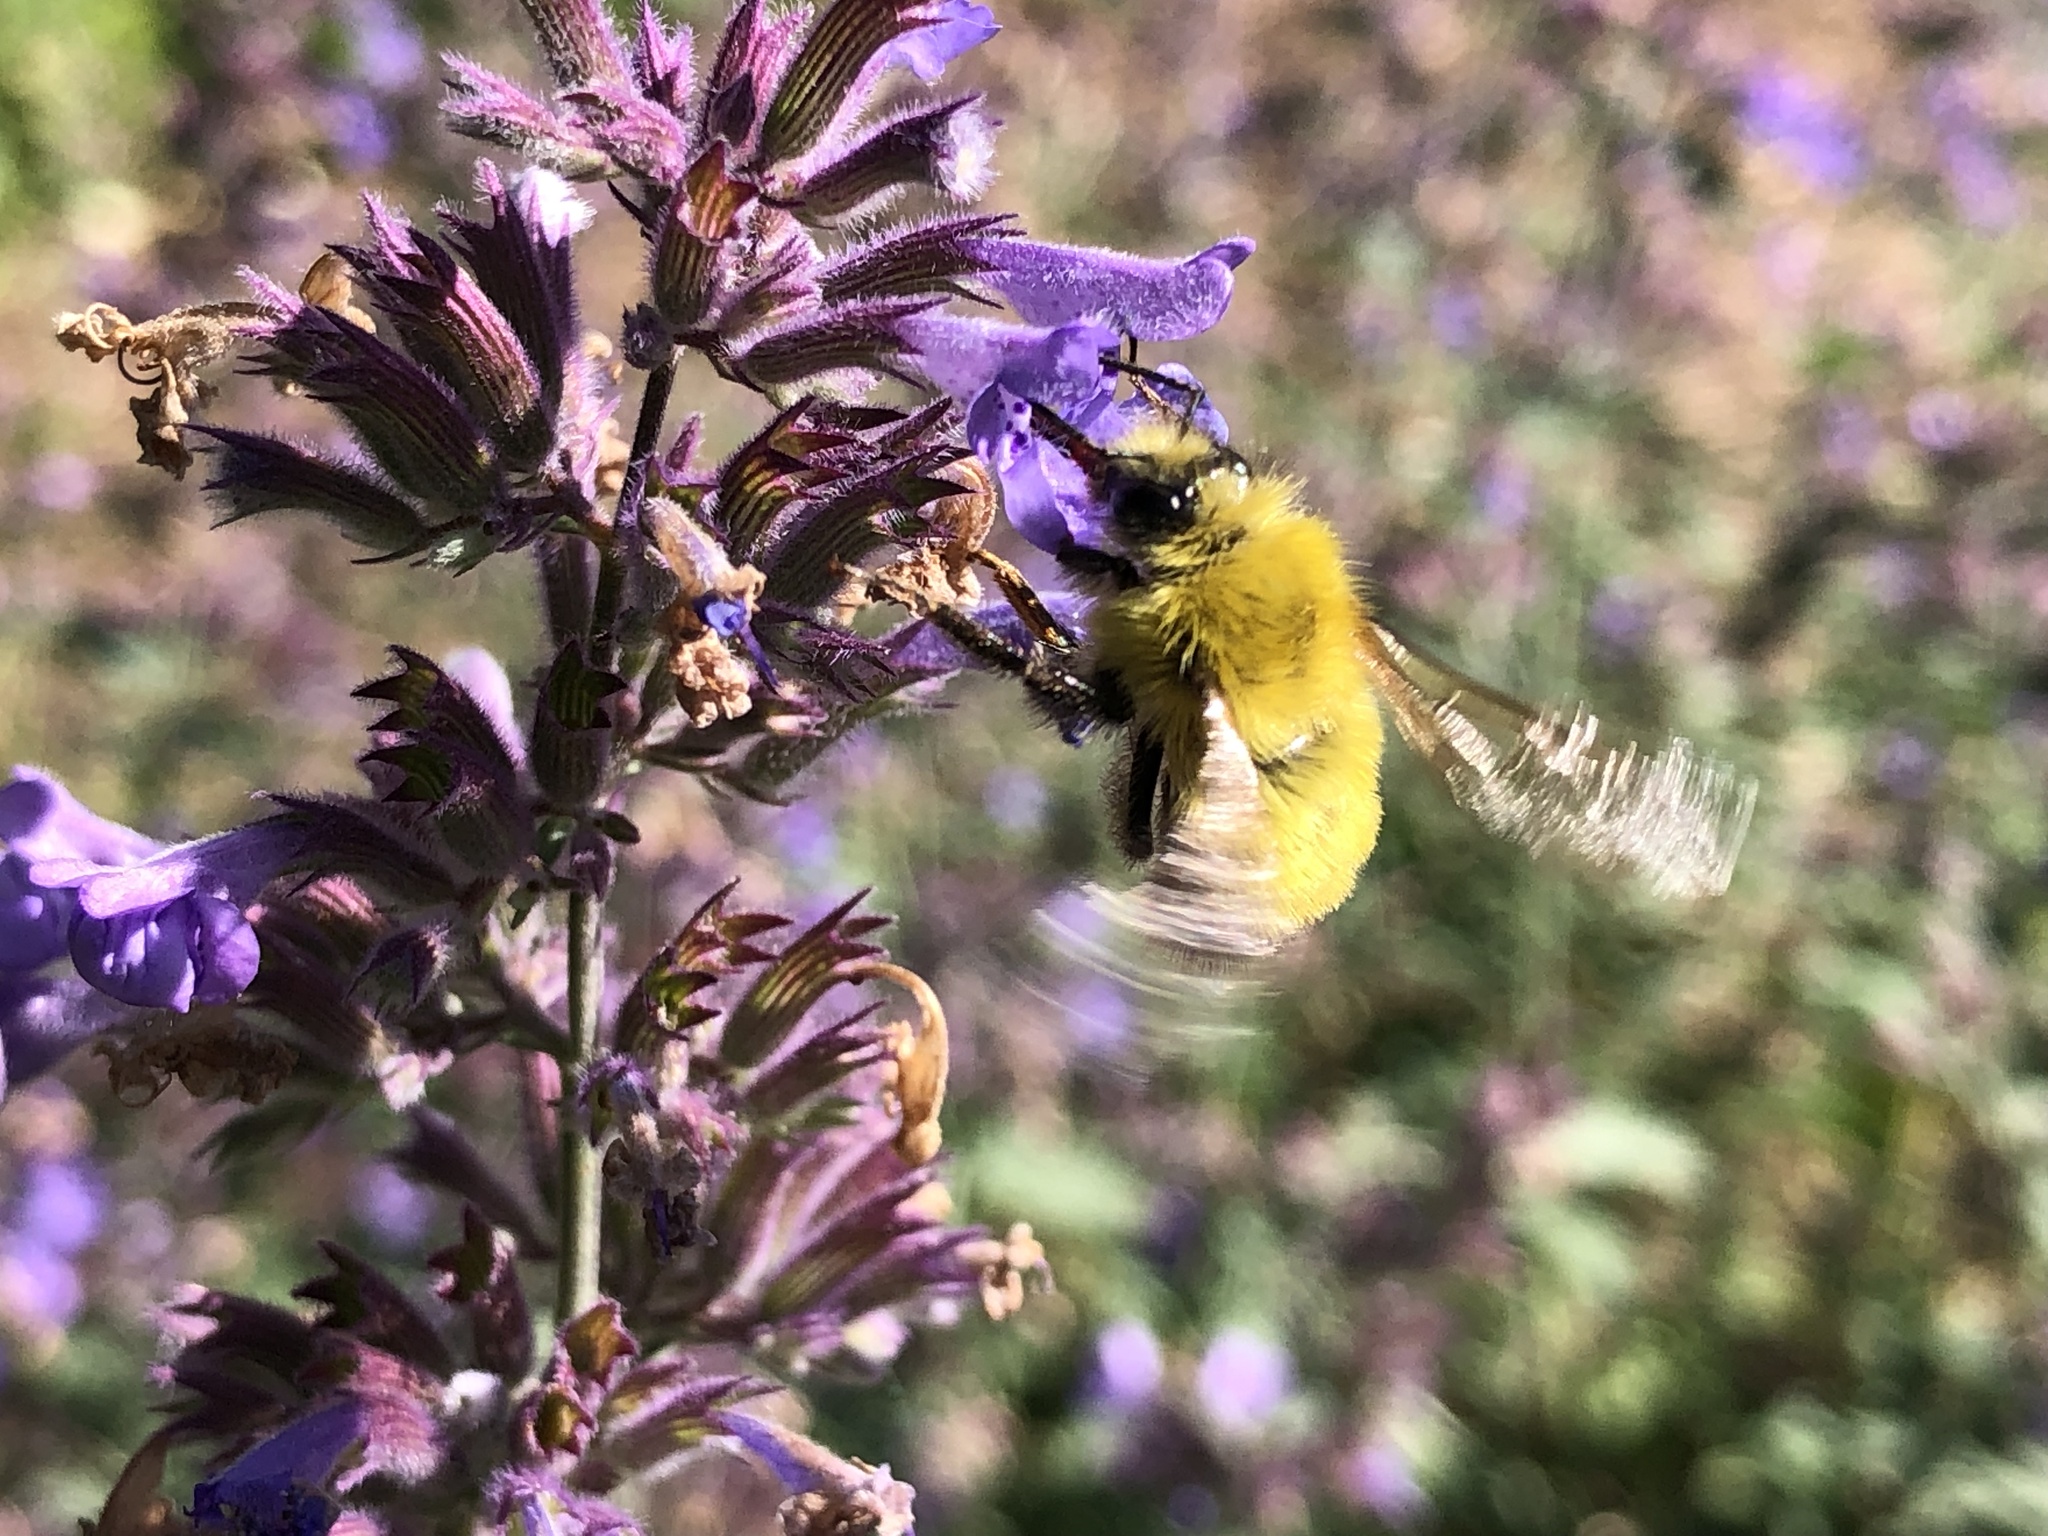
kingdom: Animalia
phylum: Arthropoda
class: Insecta
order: Hymenoptera
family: Apidae
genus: Bombus
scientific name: Bombus perplexus
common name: Confusing bumble bee
